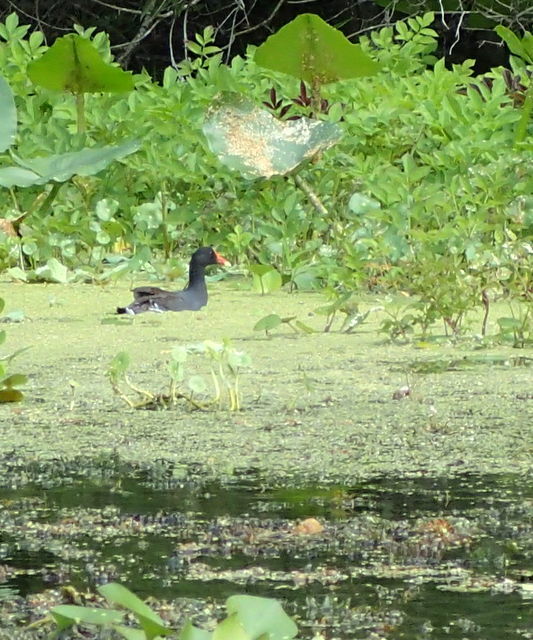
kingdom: Animalia
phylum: Chordata
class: Aves
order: Gruiformes
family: Rallidae
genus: Gallinula
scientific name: Gallinula chloropus
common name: Common moorhen
